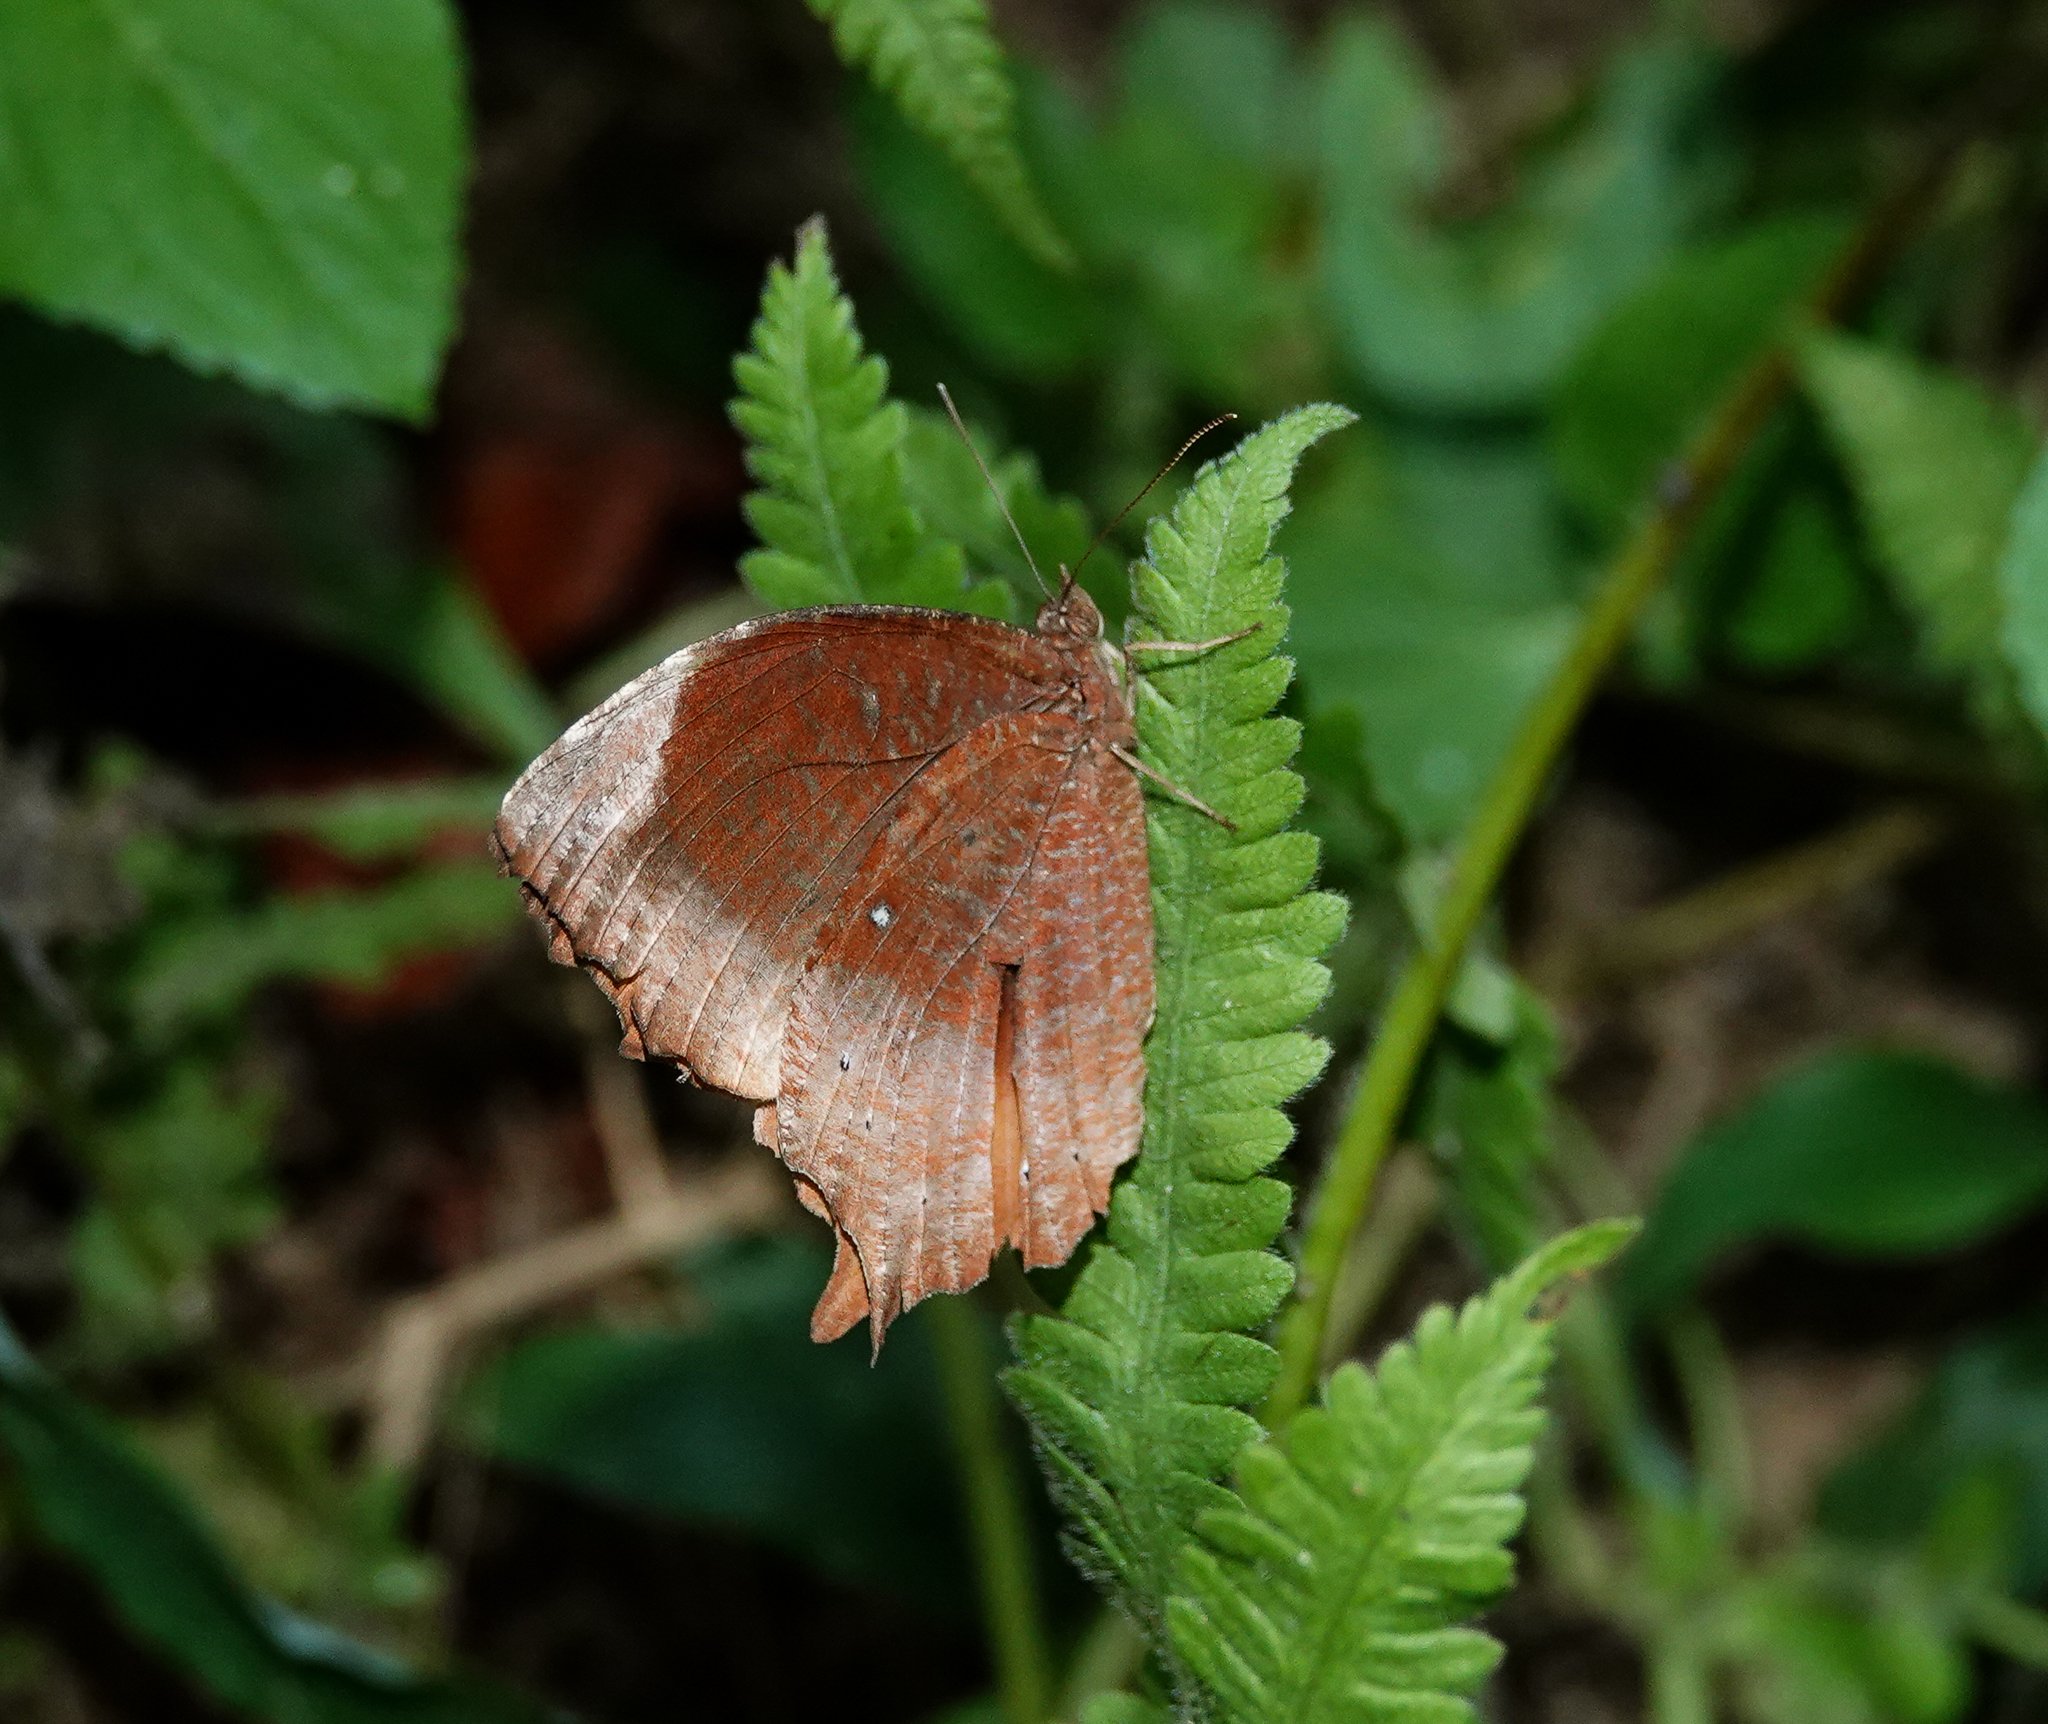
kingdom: Animalia
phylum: Arthropoda
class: Insecta
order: Lepidoptera
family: Nymphalidae
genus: Elymnias
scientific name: Elymnias congruens
